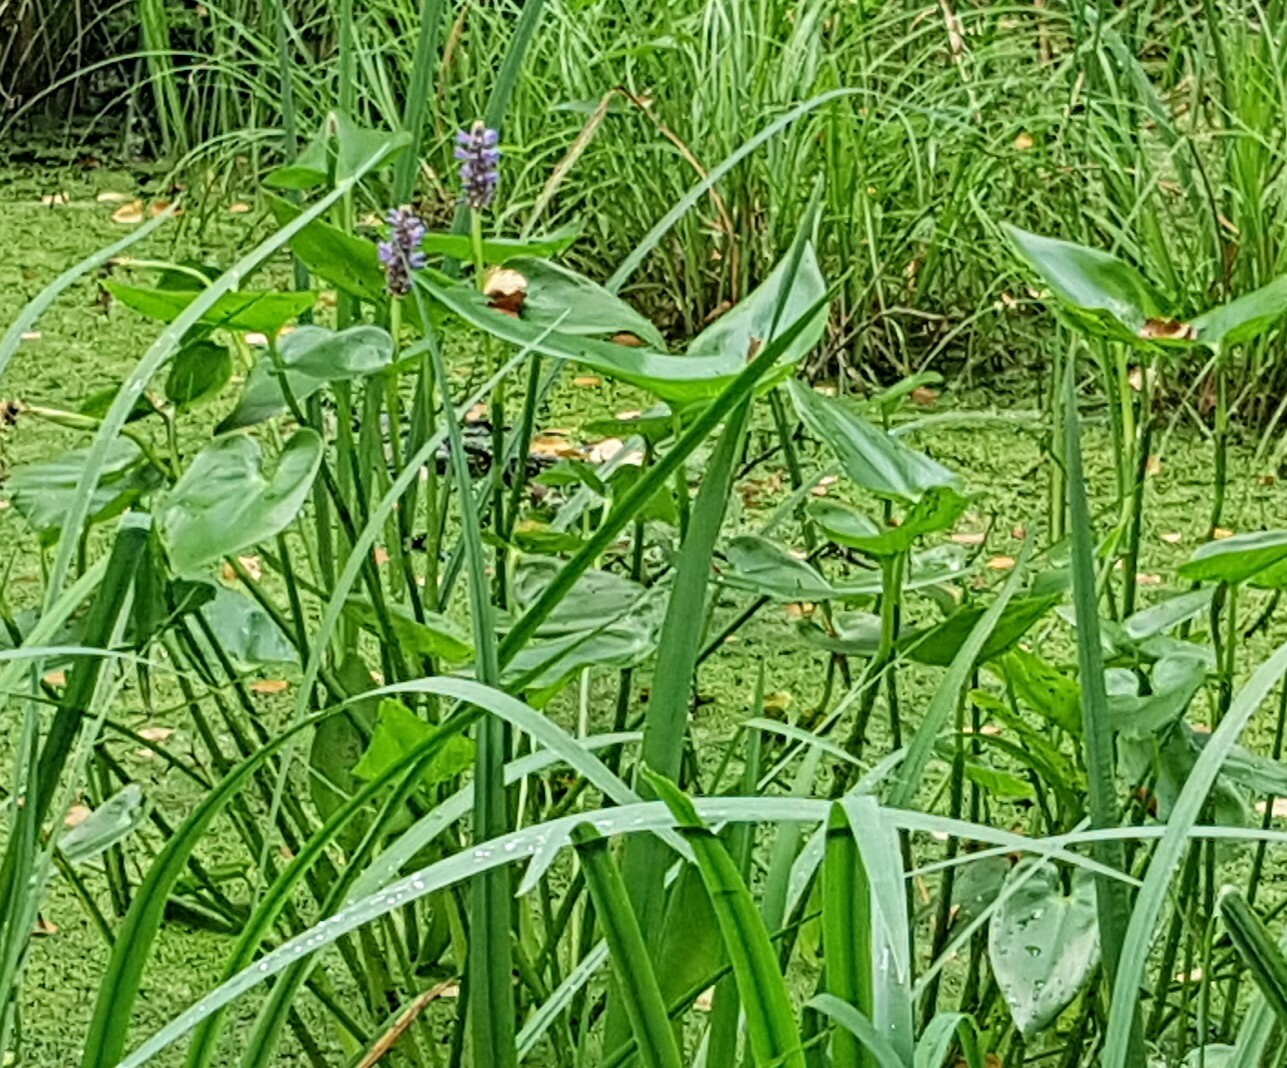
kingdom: Plantae
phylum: Tracheophyta
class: Liliopsida
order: Commelinales
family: Pontederiaceae
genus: Pontederia
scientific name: Pontederia cordata
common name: Pickerelweed
